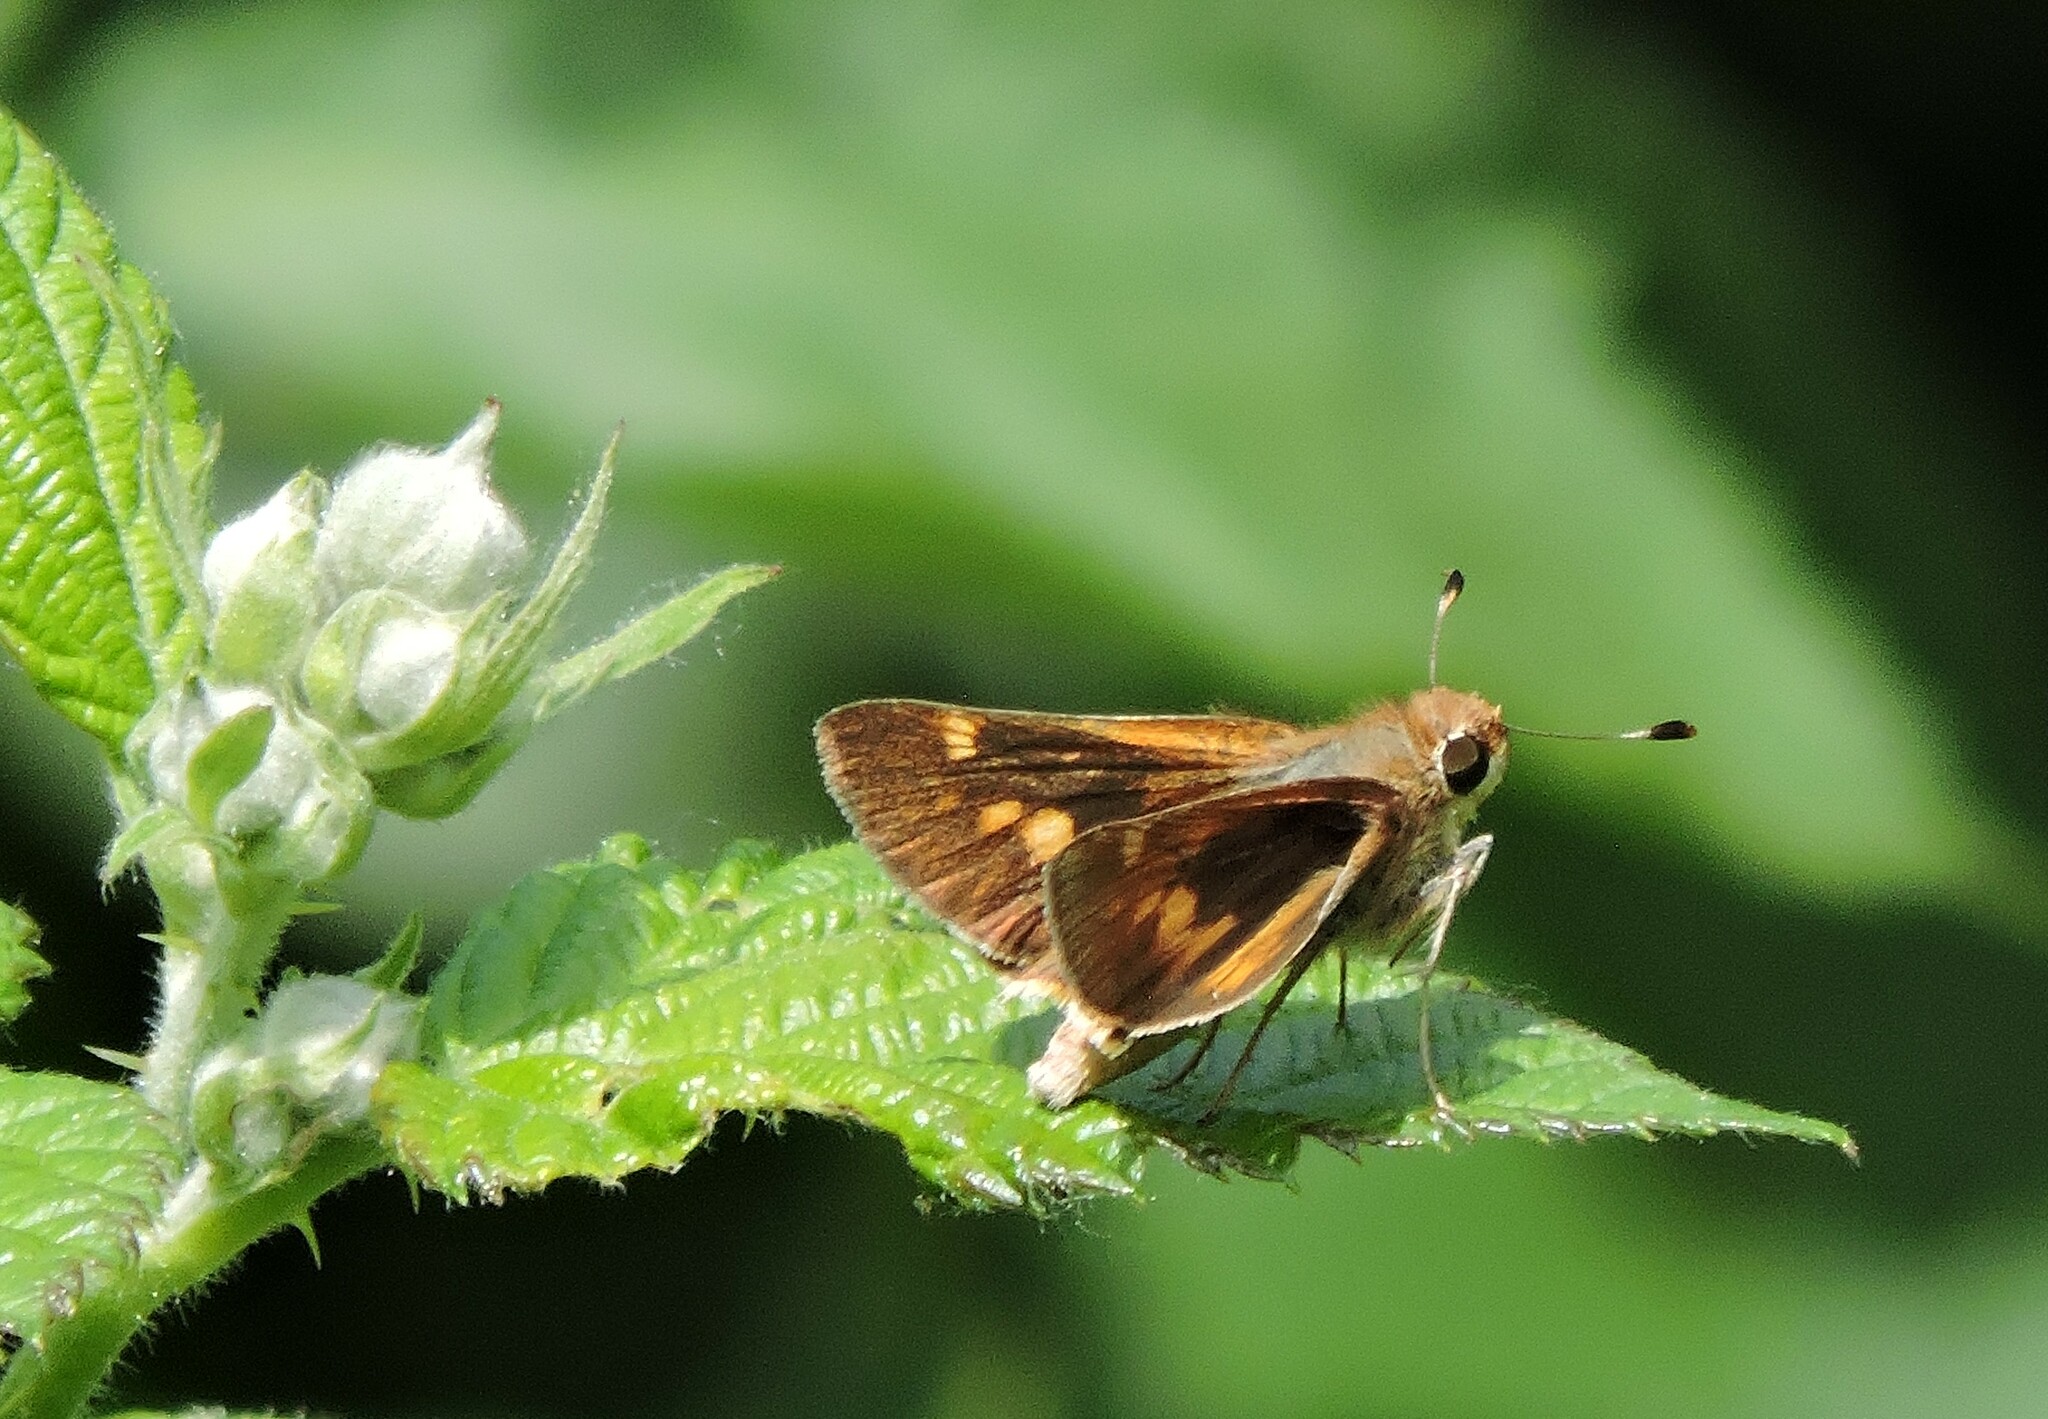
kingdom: Animalia
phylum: Arthropoda
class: Insecta
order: Lepidoptera
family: Hesperiidae
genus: Lon
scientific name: Lon melane
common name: Umber skipper
